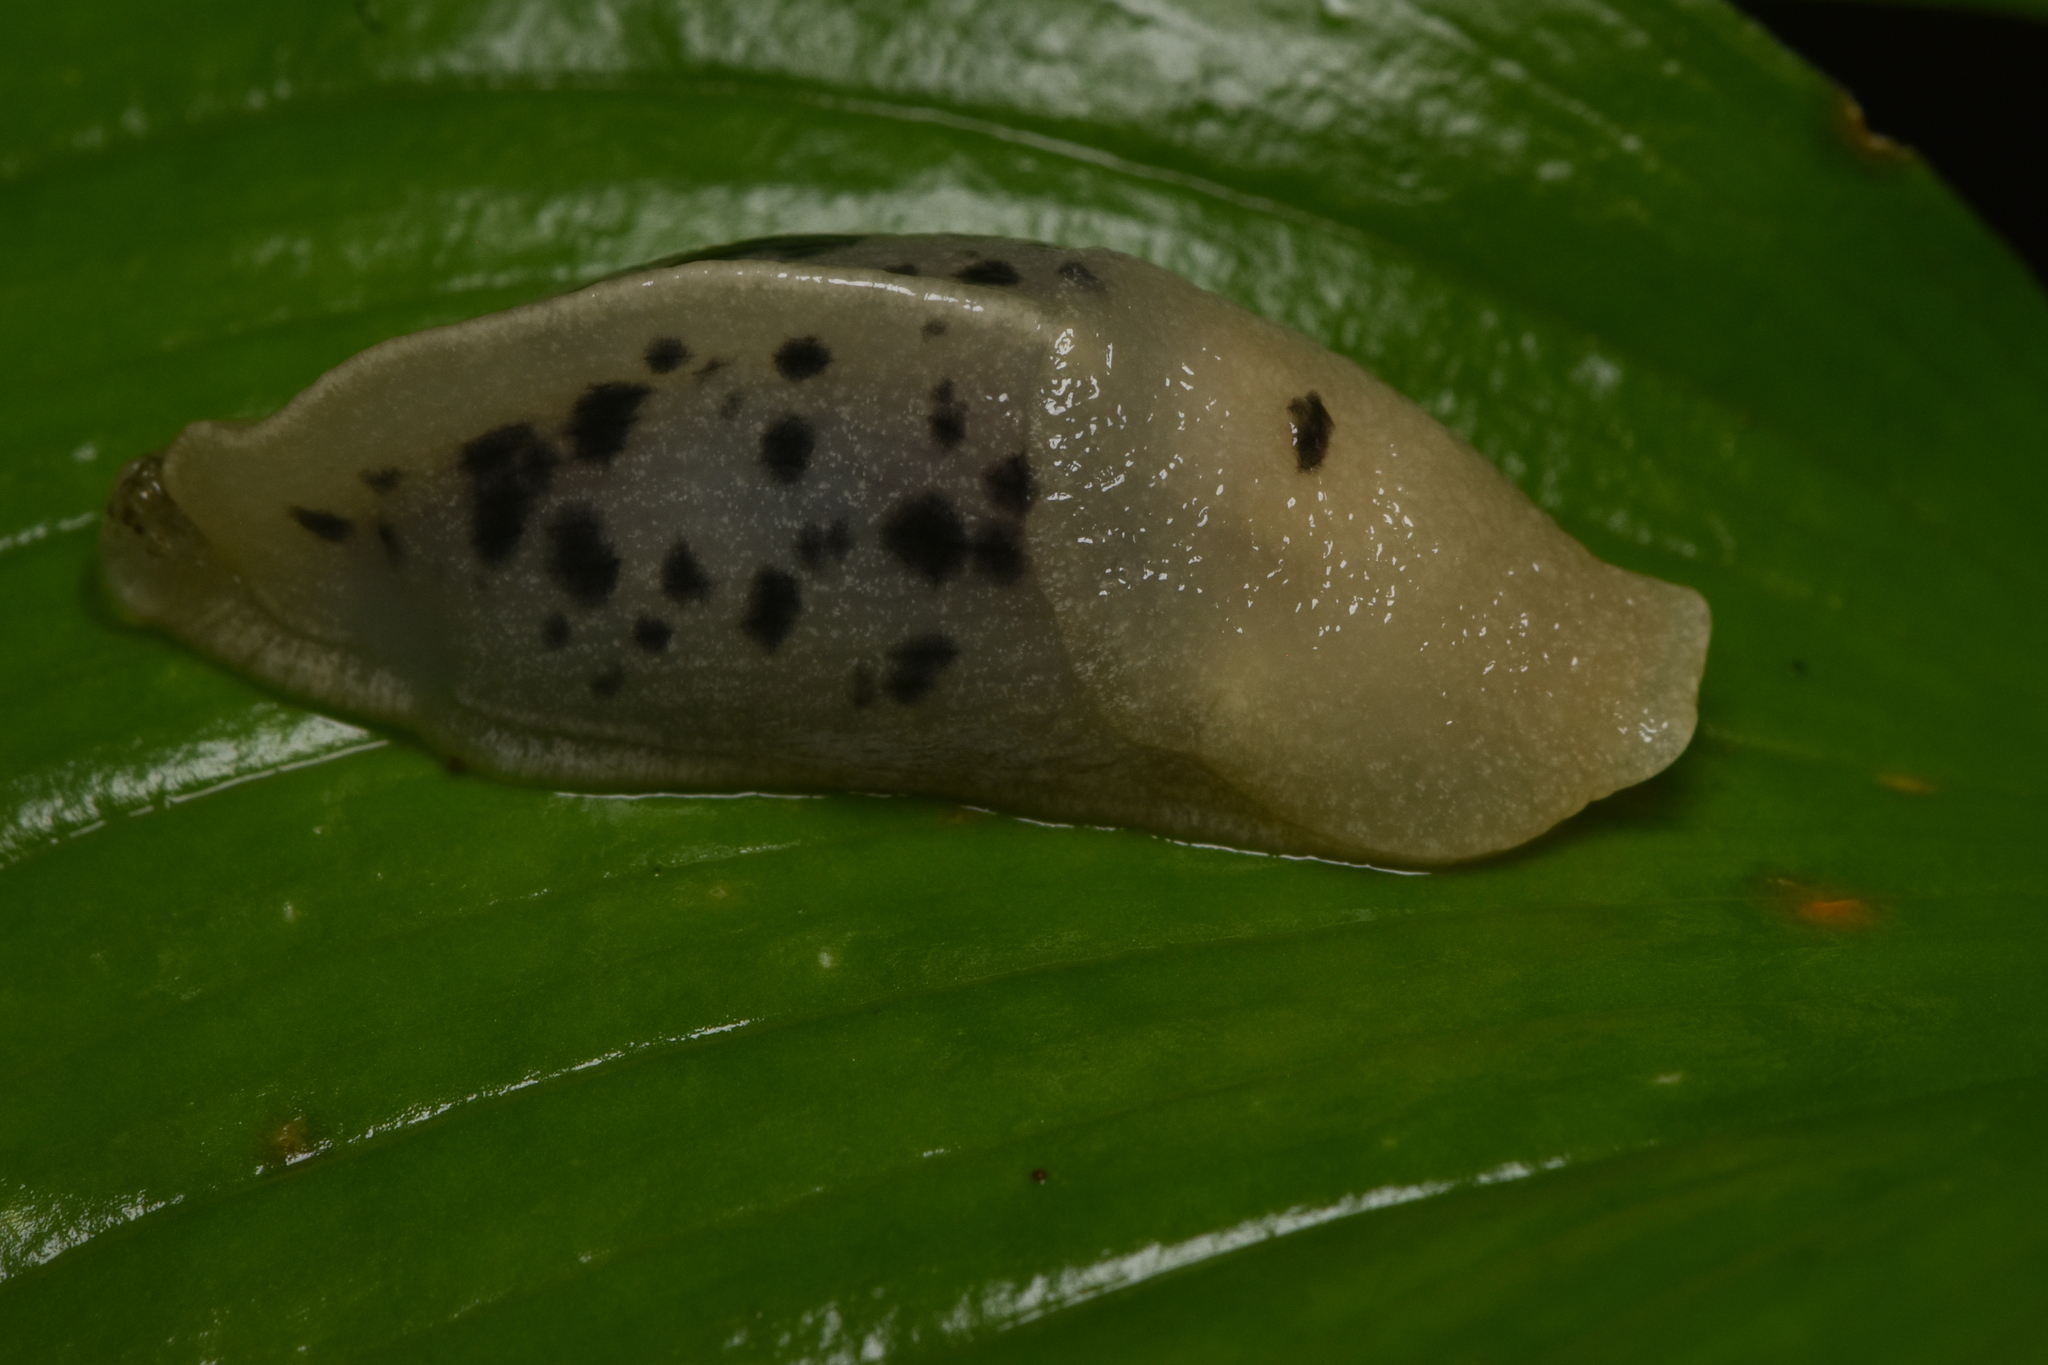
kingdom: Animalia
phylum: Mollusca
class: Gastropoda
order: Stylommatophora
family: Ariolimacidae
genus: Ariolimax
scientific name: Ariolimax columbianus
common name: Pacific banana slug
